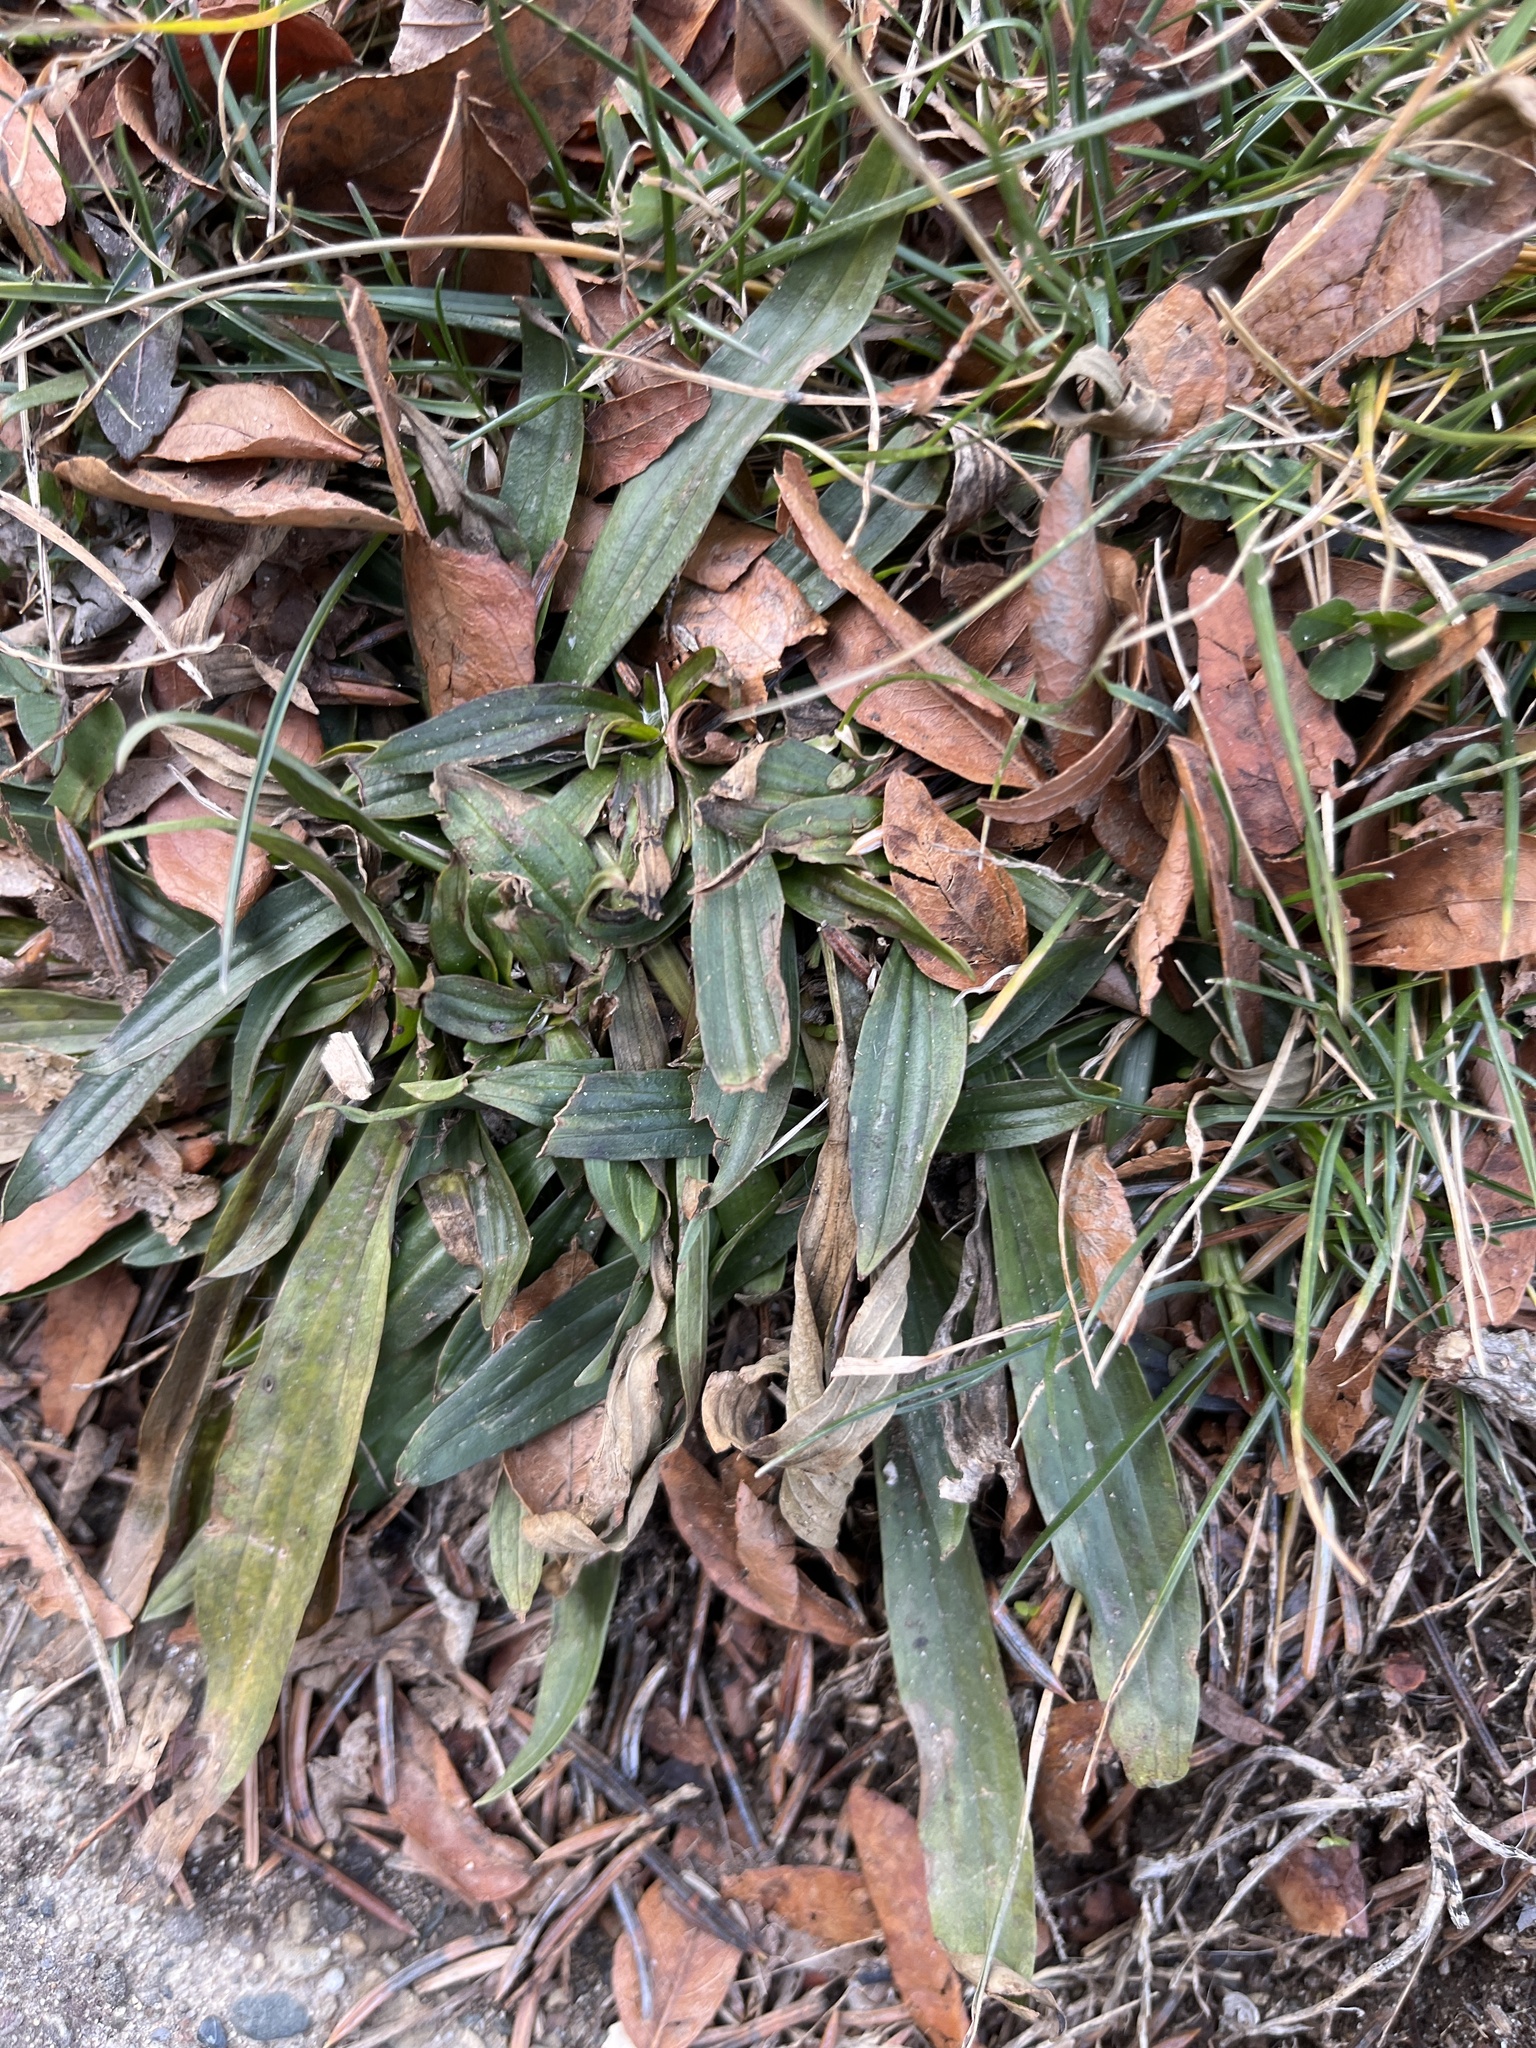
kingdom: Plantae
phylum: Tracheophyta
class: Magnoliopsida
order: Lamiales
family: Plantaginaceae
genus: Plantago
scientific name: Plantago lanceolata
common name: Ribwort plantain
